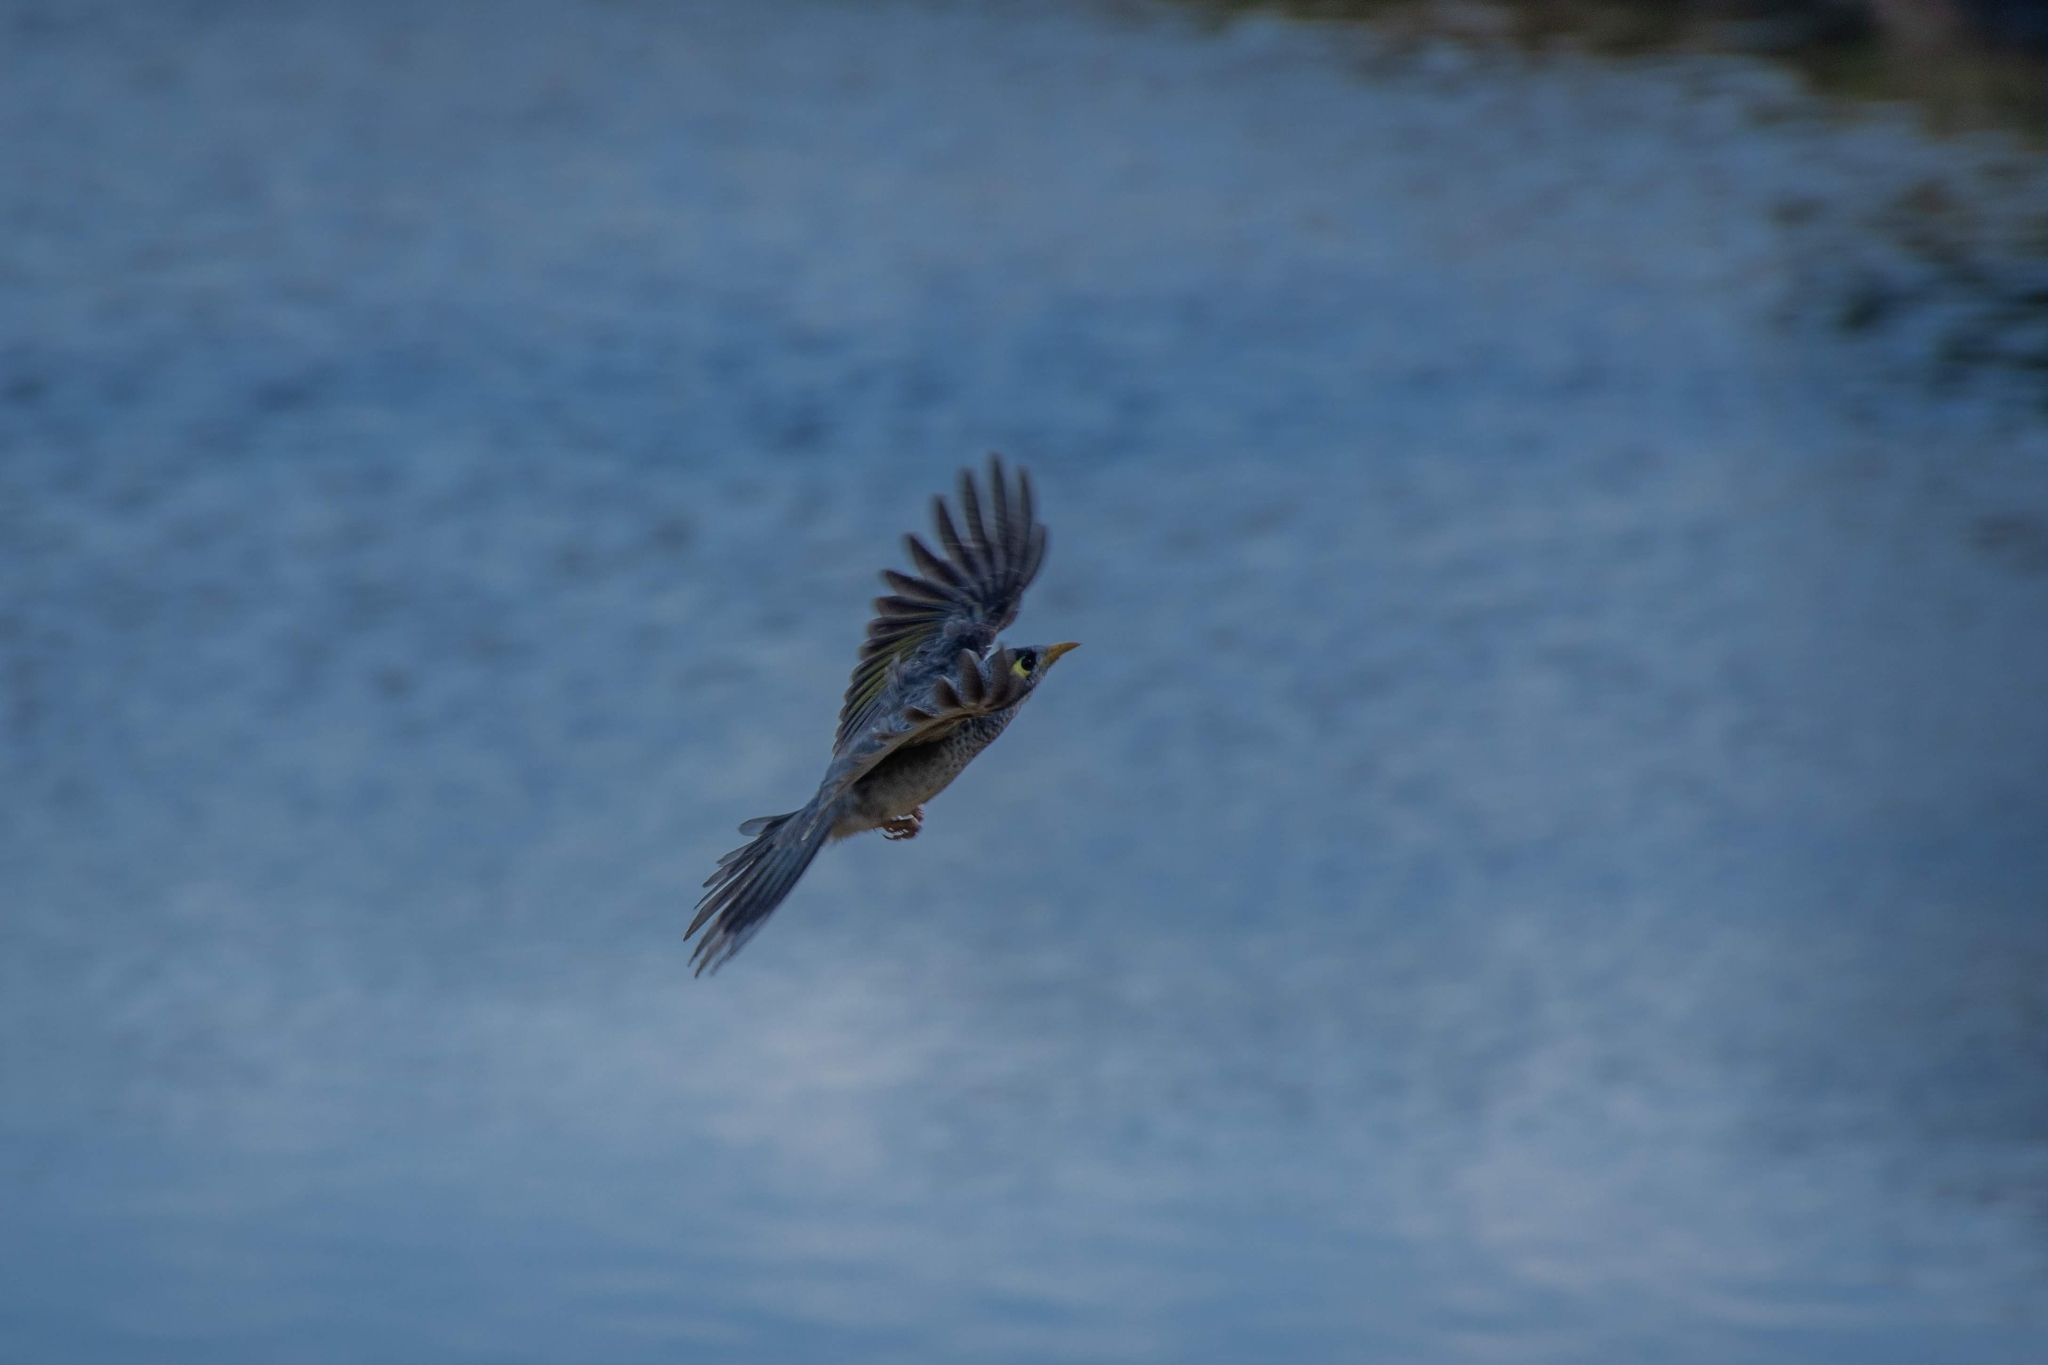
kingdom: Animalia
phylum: Chordata
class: Aves
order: Passeriformes
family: Meliphagidae
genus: Manorina
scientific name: Manorina melanocephala
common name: Noisy miner
